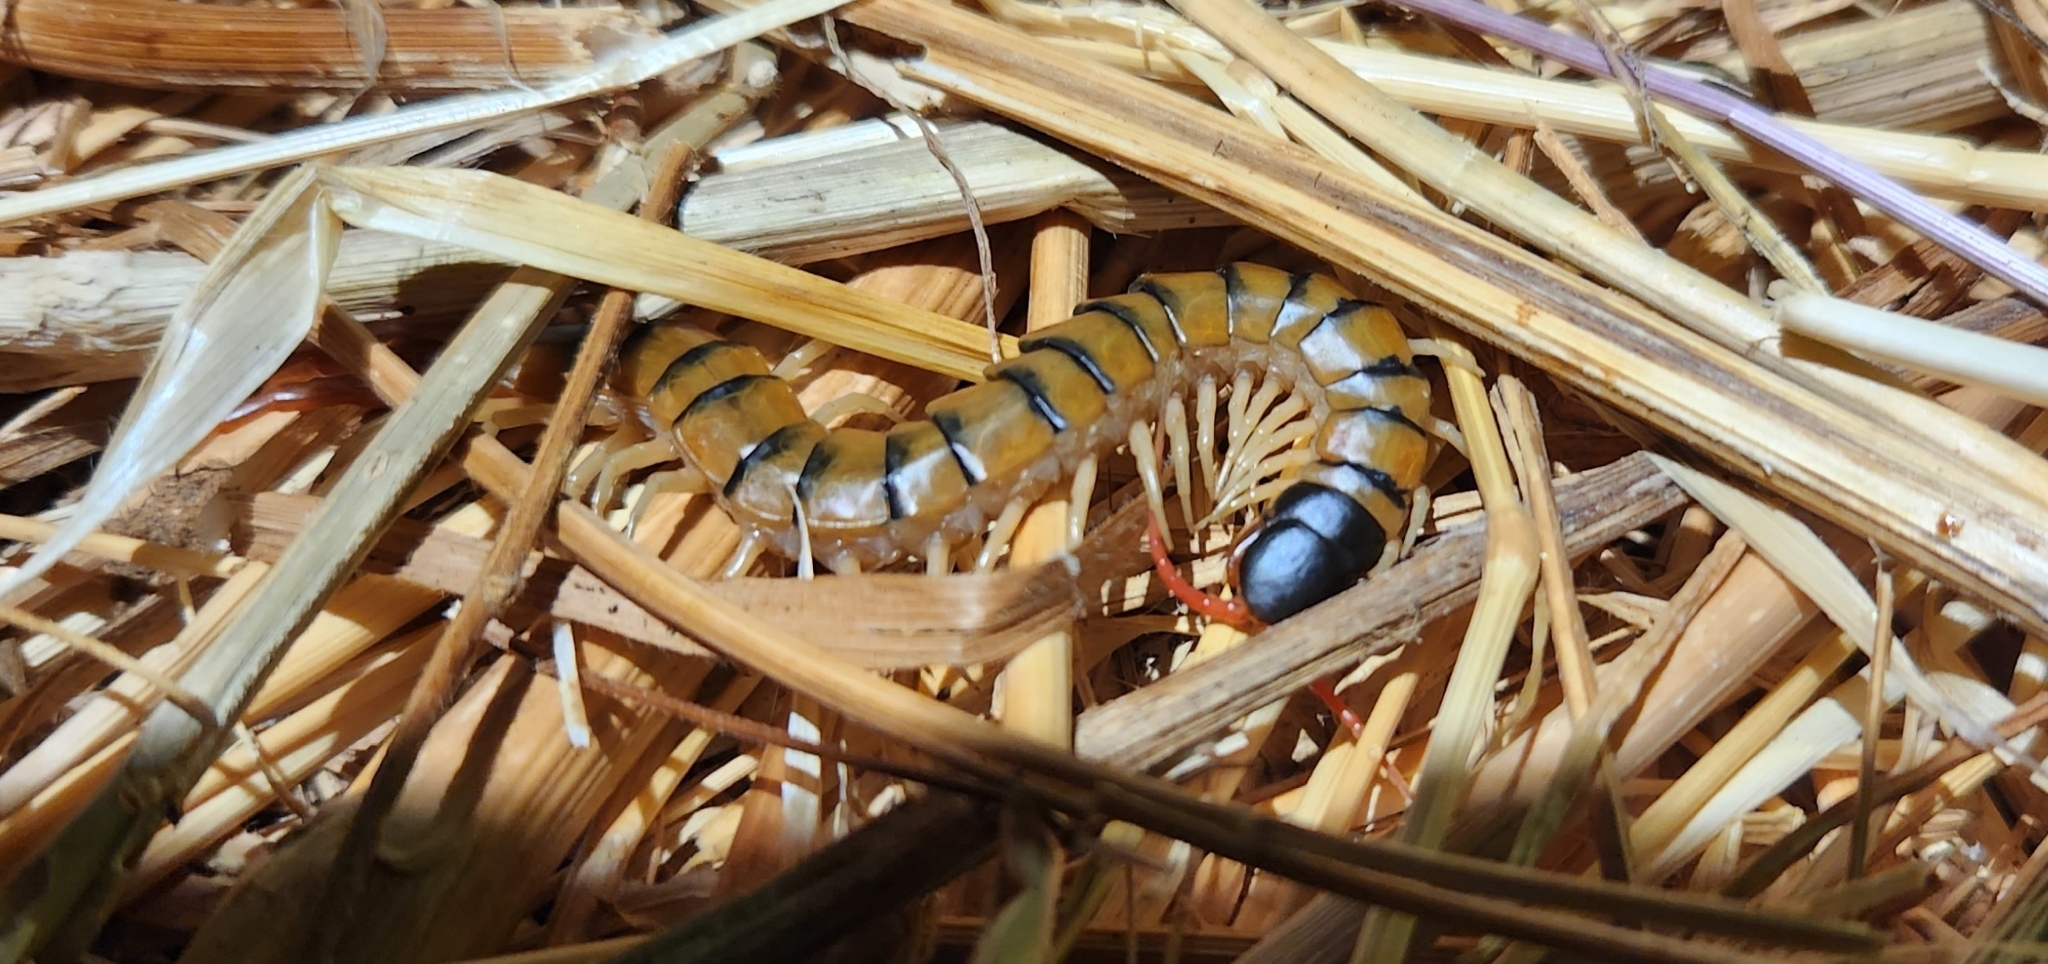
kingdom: Animalia
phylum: Arthropoda
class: Chilopoda
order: Scolopendromorpha
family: Scolopendridae
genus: Scolopendra
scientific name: Scolopendra cingulata
